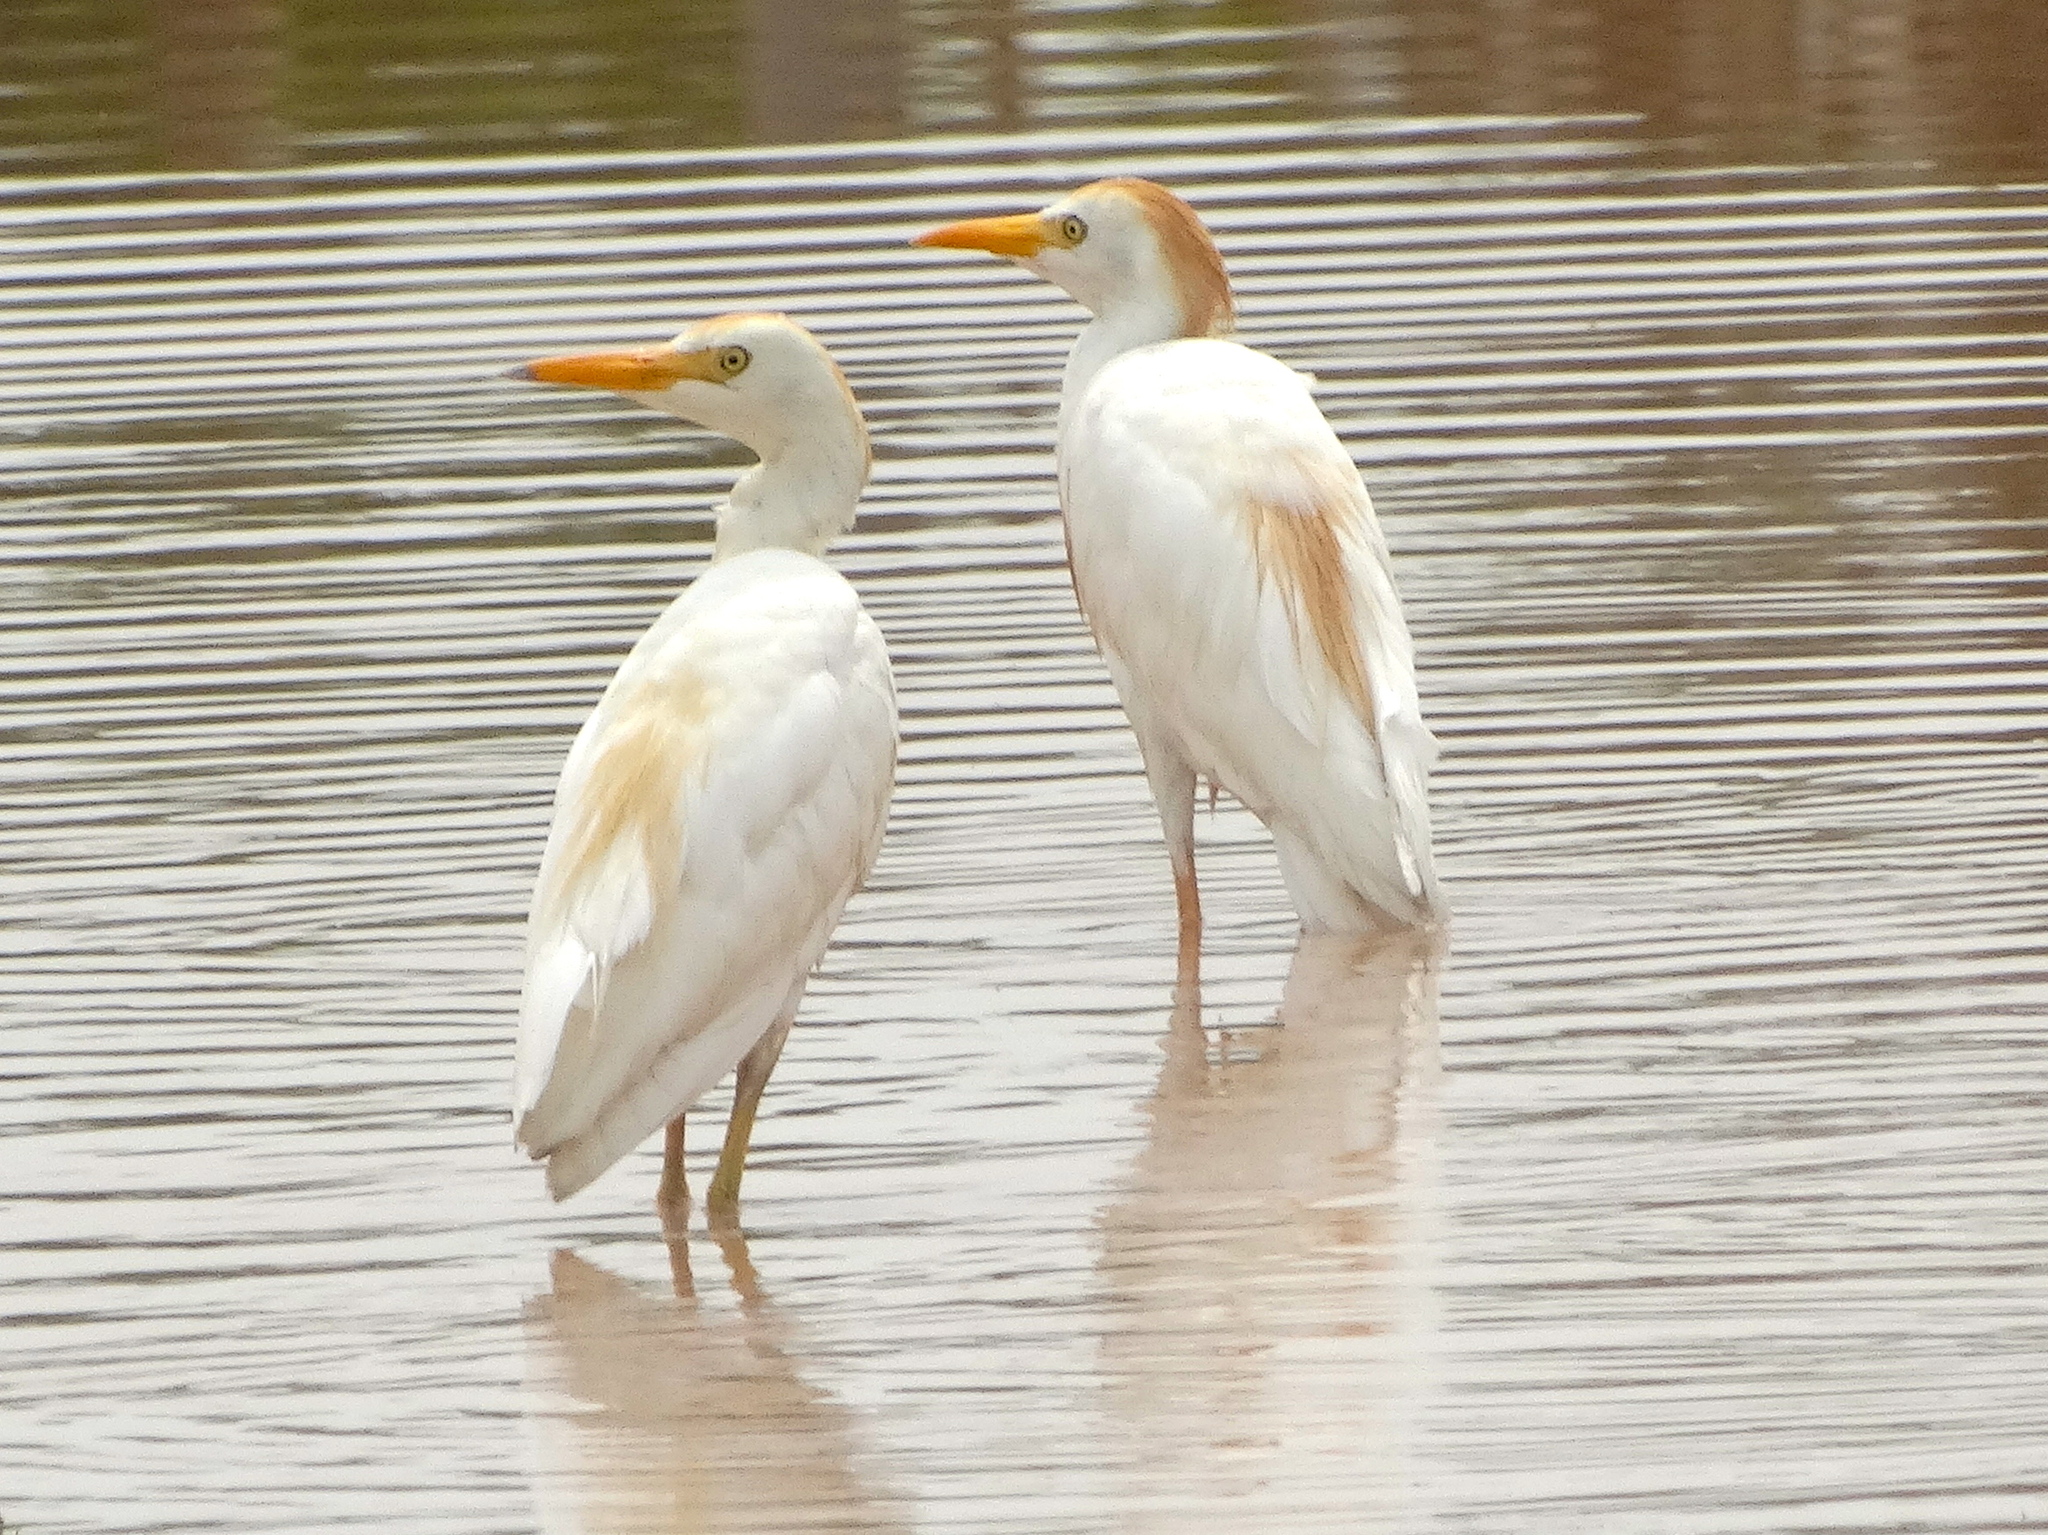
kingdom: Animalia
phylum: Chordata
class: Aves
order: Pelecaniformes
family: Ardeidae
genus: Bubulcus
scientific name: Bubulcus ibis
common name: Cattle egret
